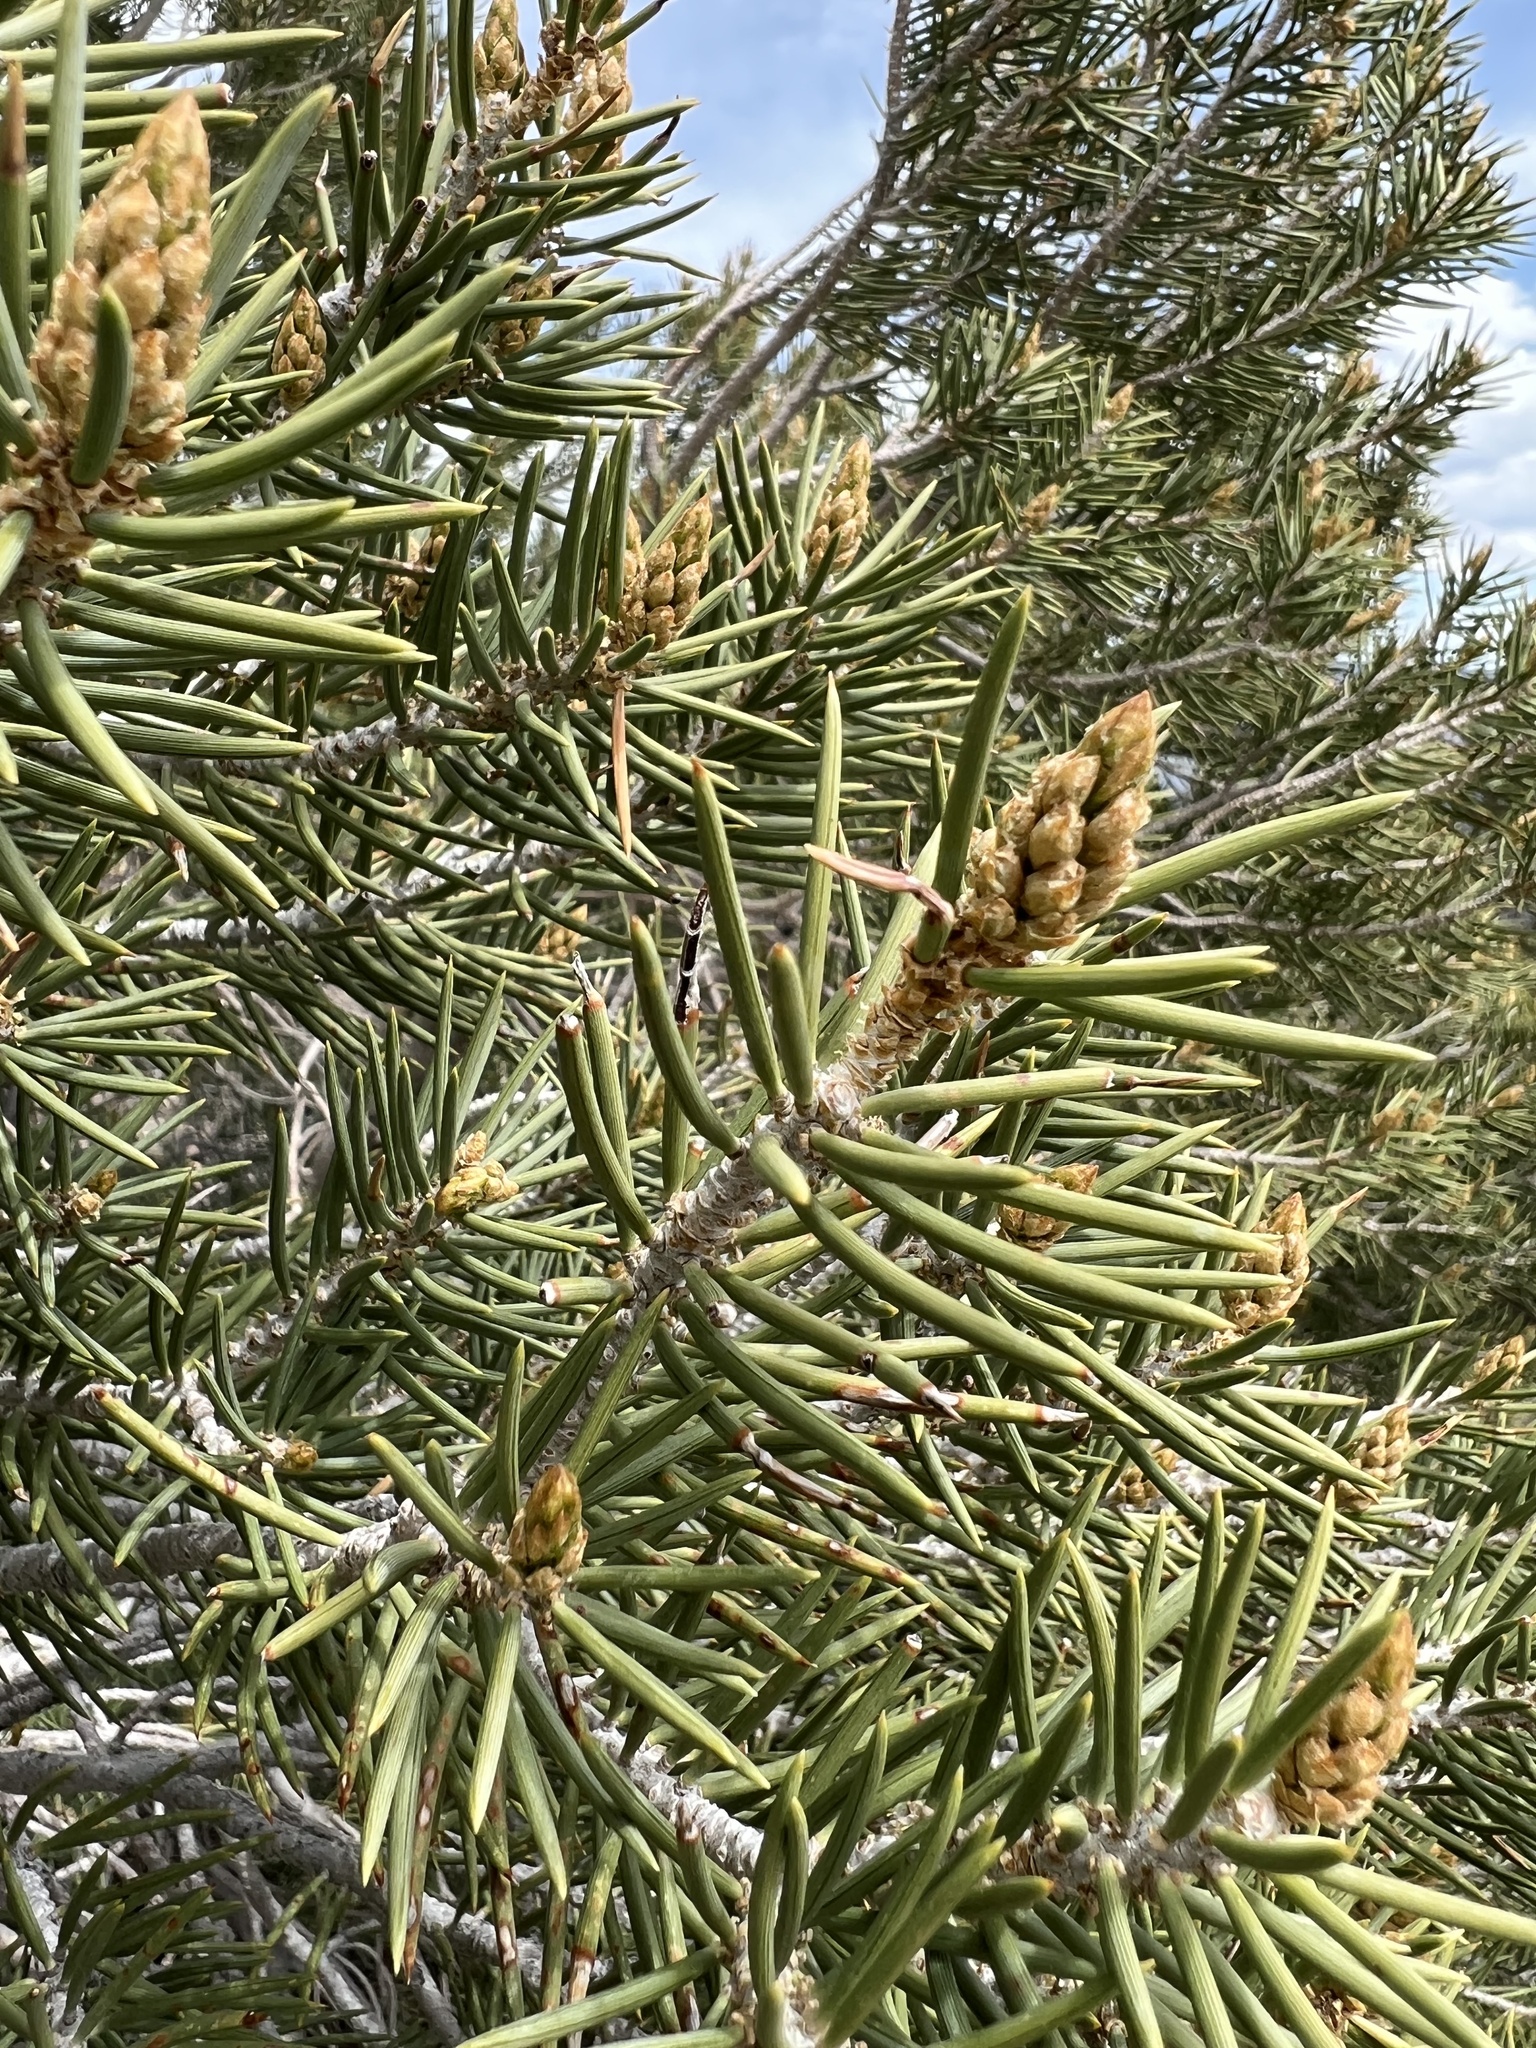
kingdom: Plantae
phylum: Tracheophyta
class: Pinopsida
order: Pinales
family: Pinaceae
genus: Pinus
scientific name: Pinus monophylla
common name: One-leaved nut pine
